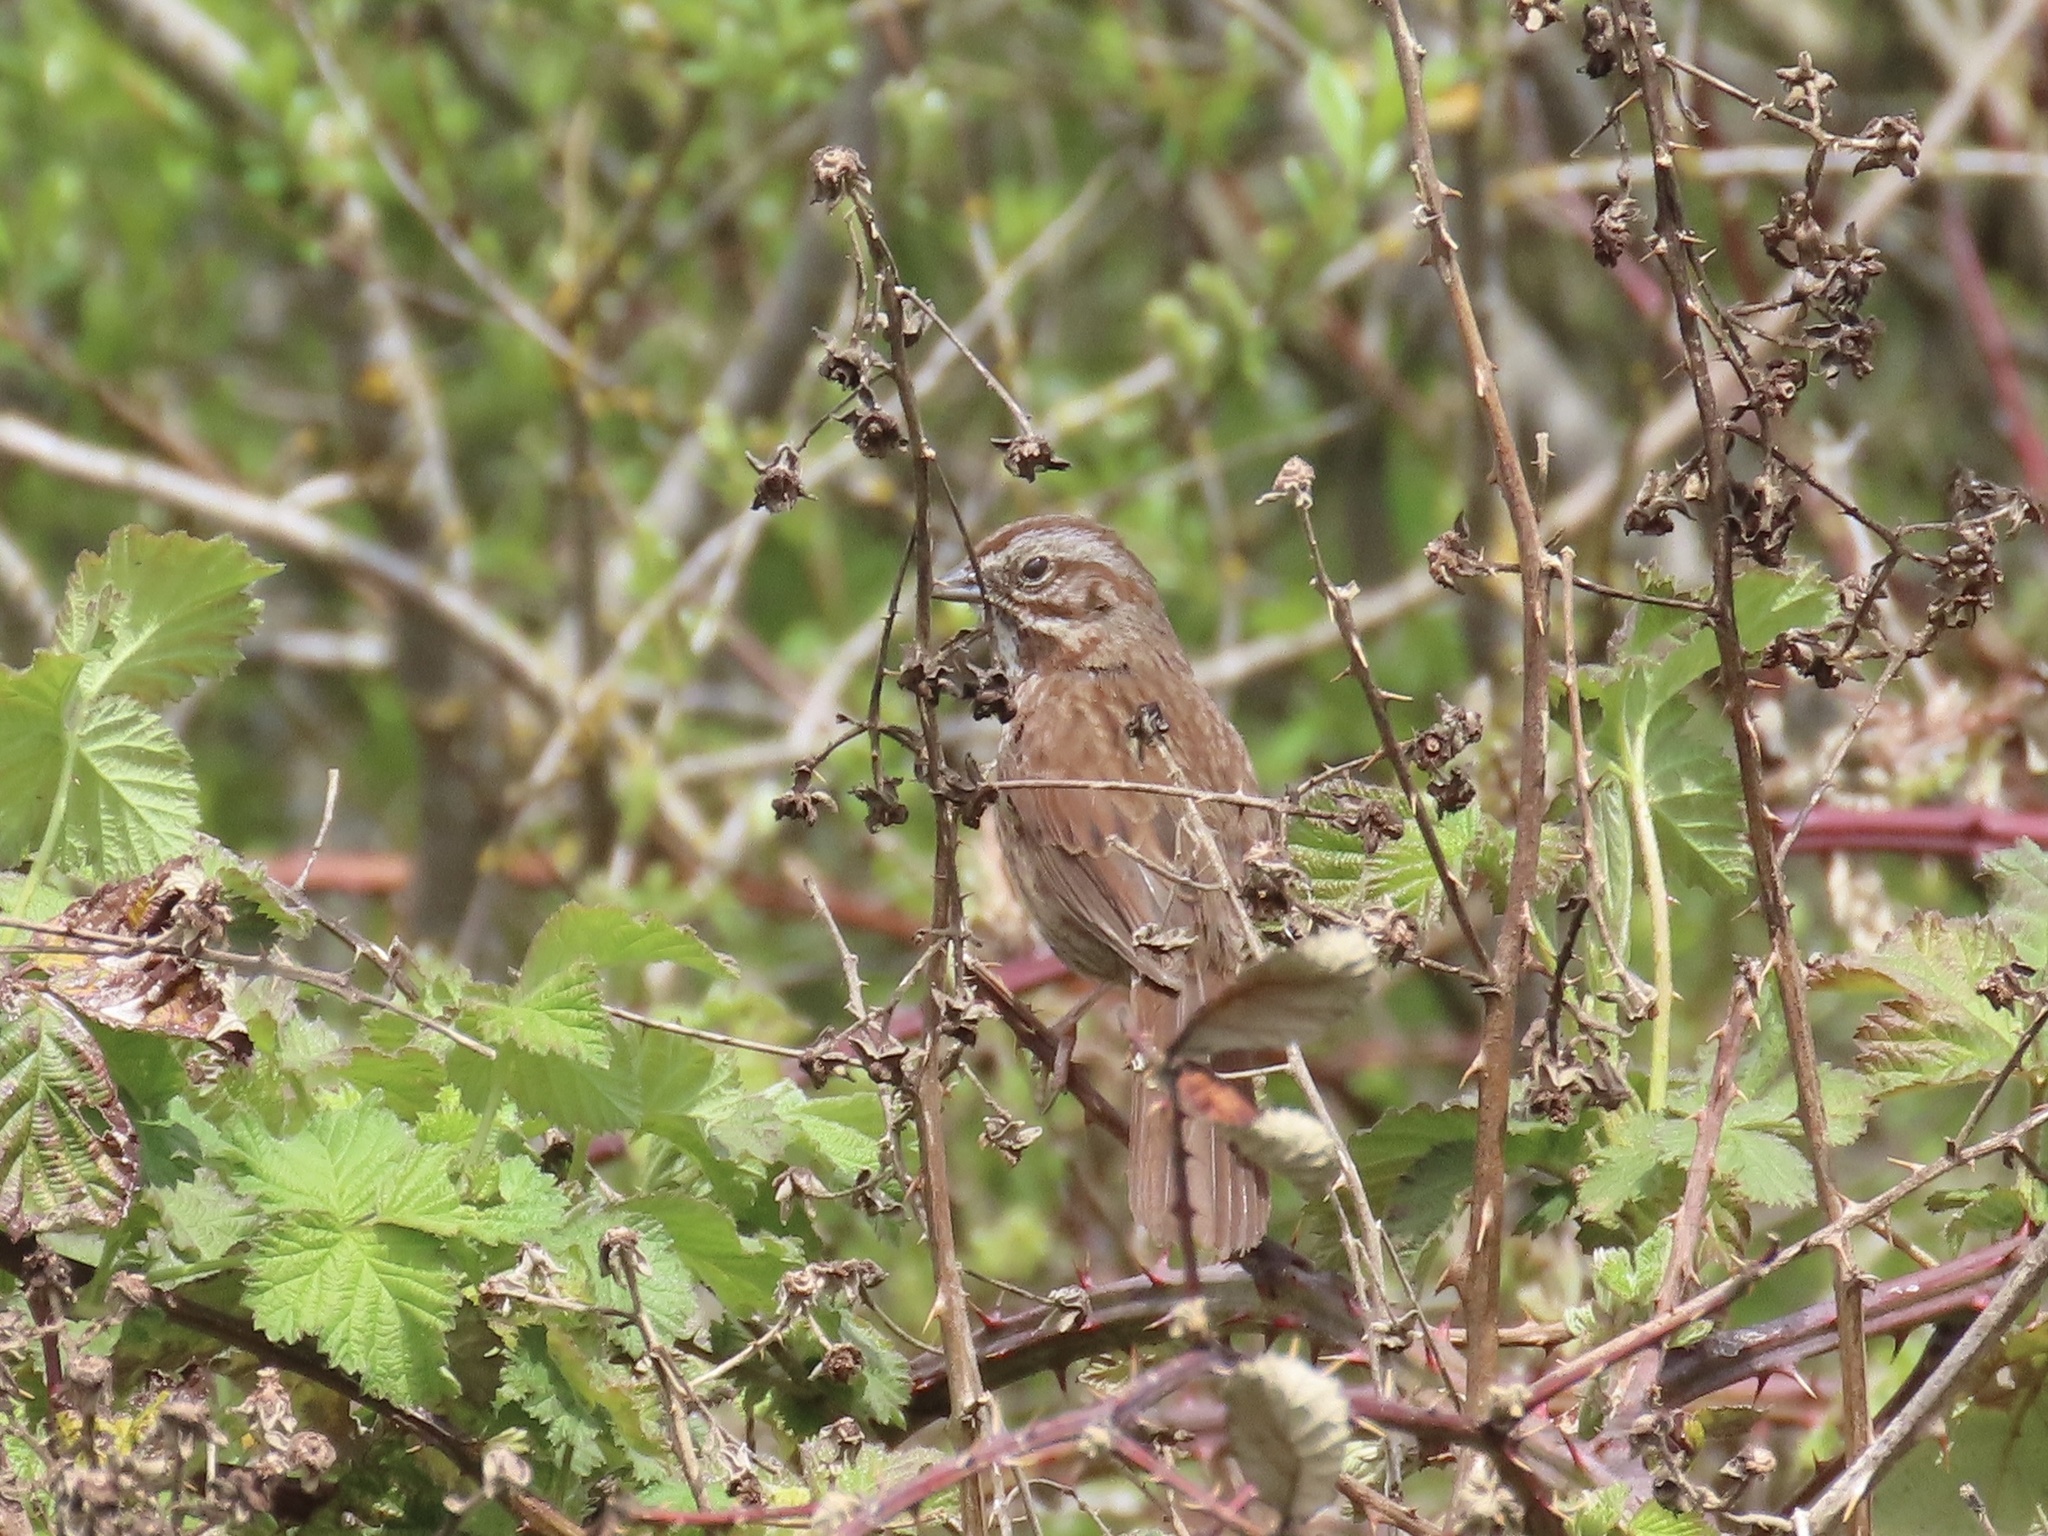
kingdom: Animalia
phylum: Chordata
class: Aves
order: Passeriformes
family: Passerellidae
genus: Melospiza
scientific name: Melospiza melodia
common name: Song sparrow
